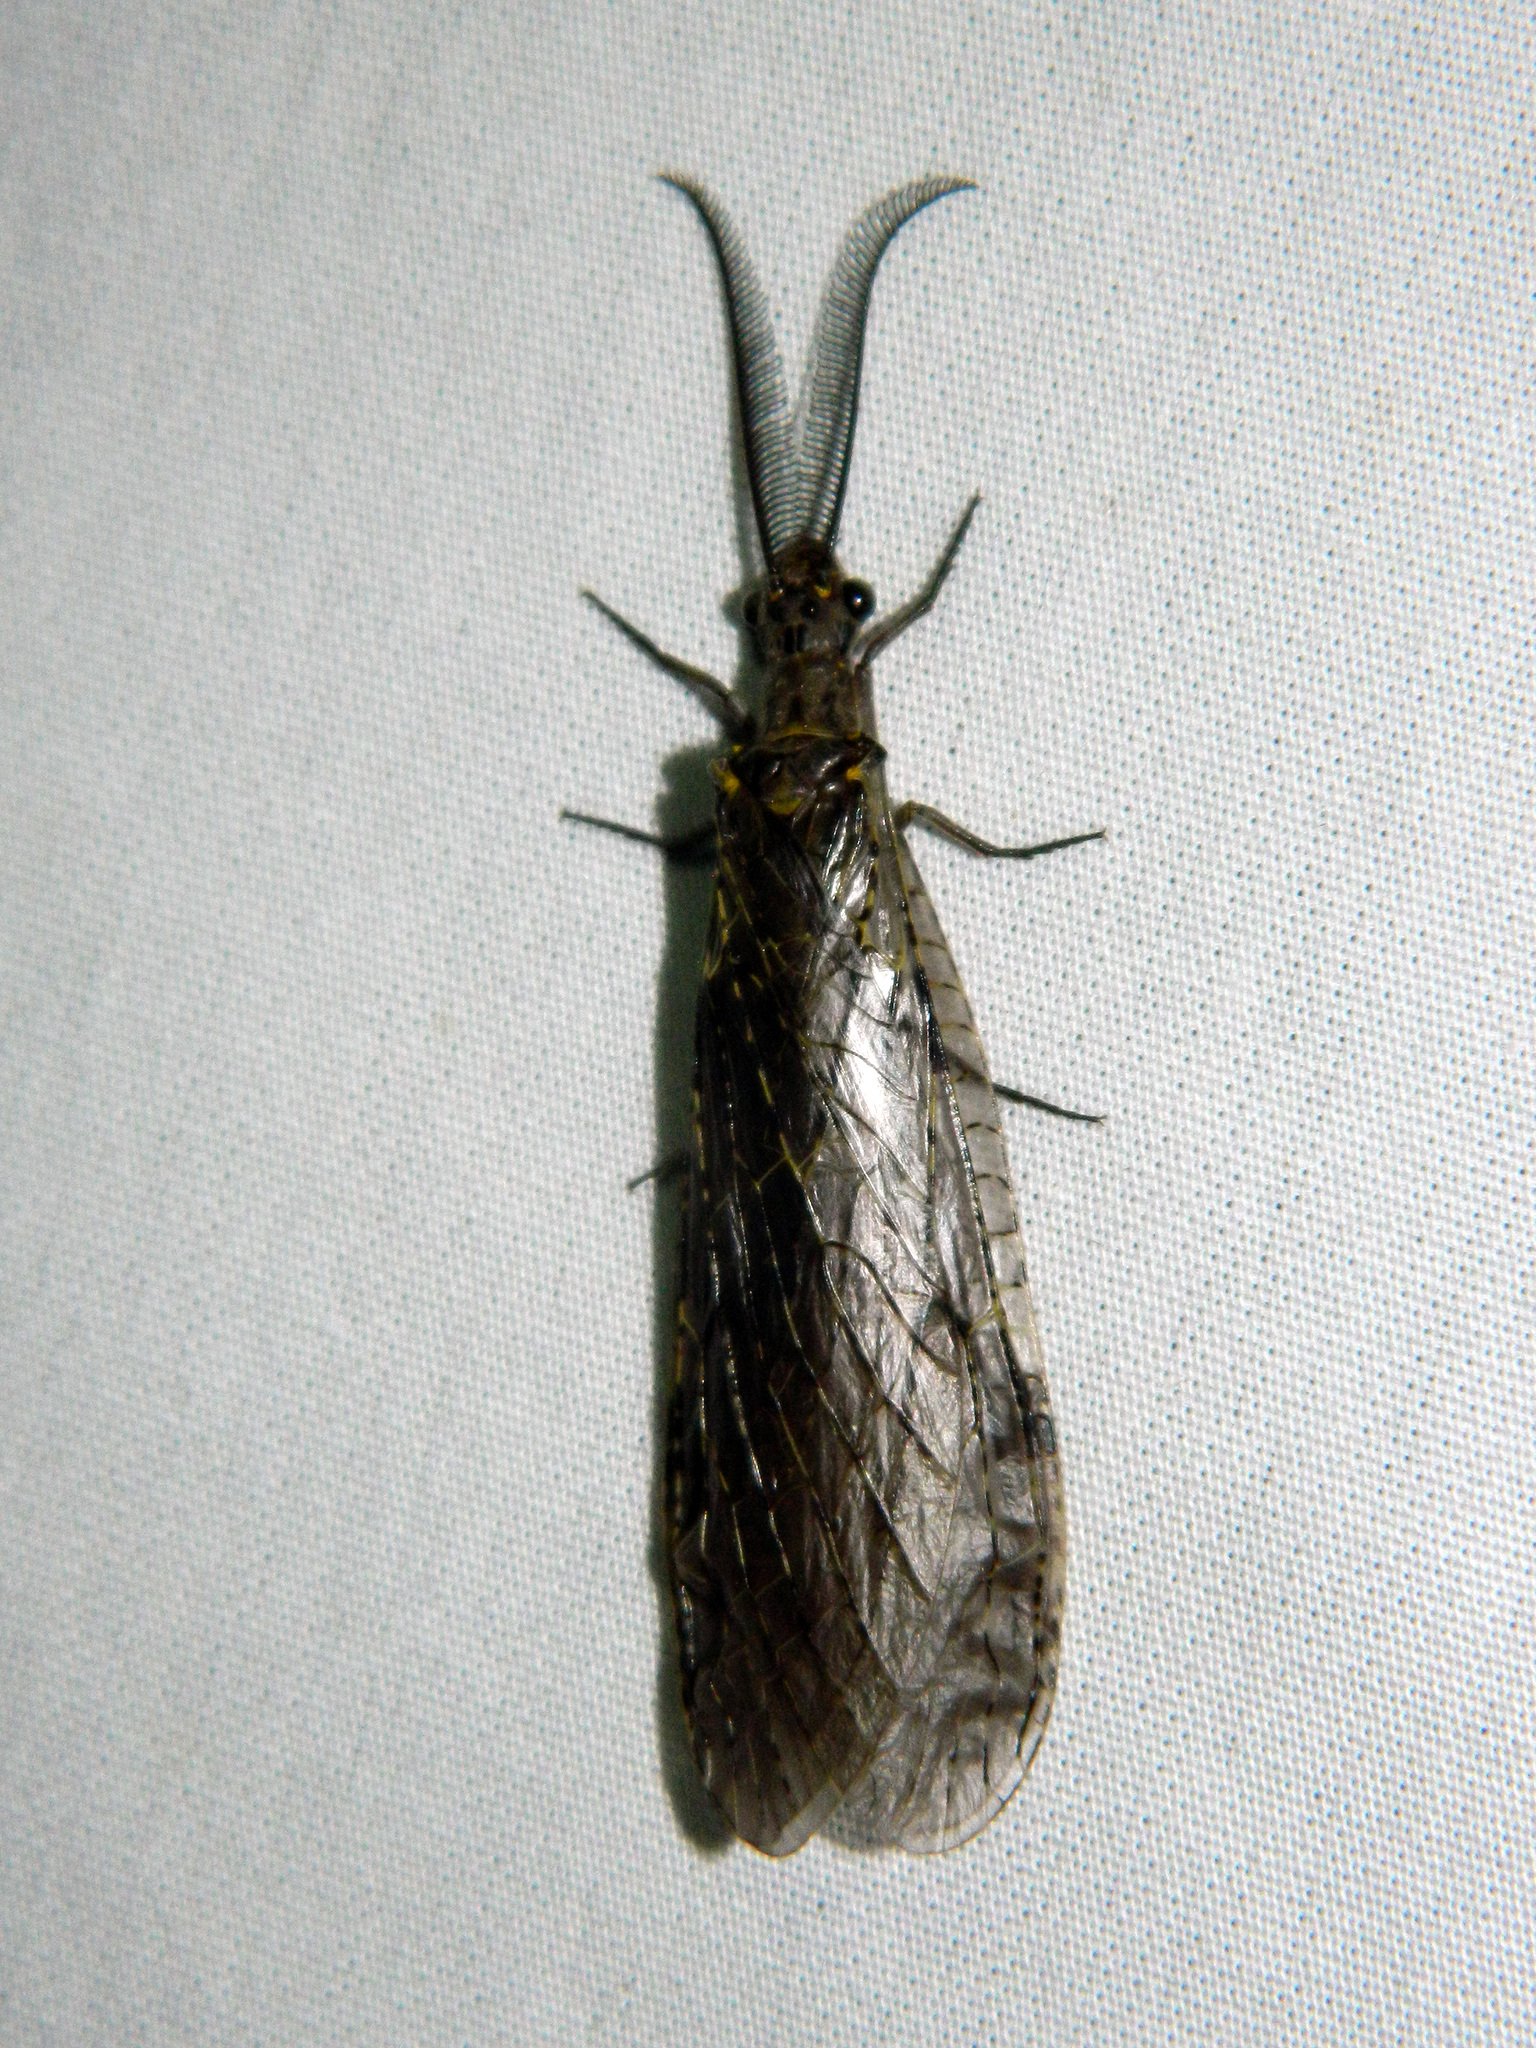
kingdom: Animalia
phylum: Arthropoda
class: Insecta
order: Megaloptera
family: Corydalidae
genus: Chauliodes
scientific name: Chauliodes rastricornis
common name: Spring fishfly
